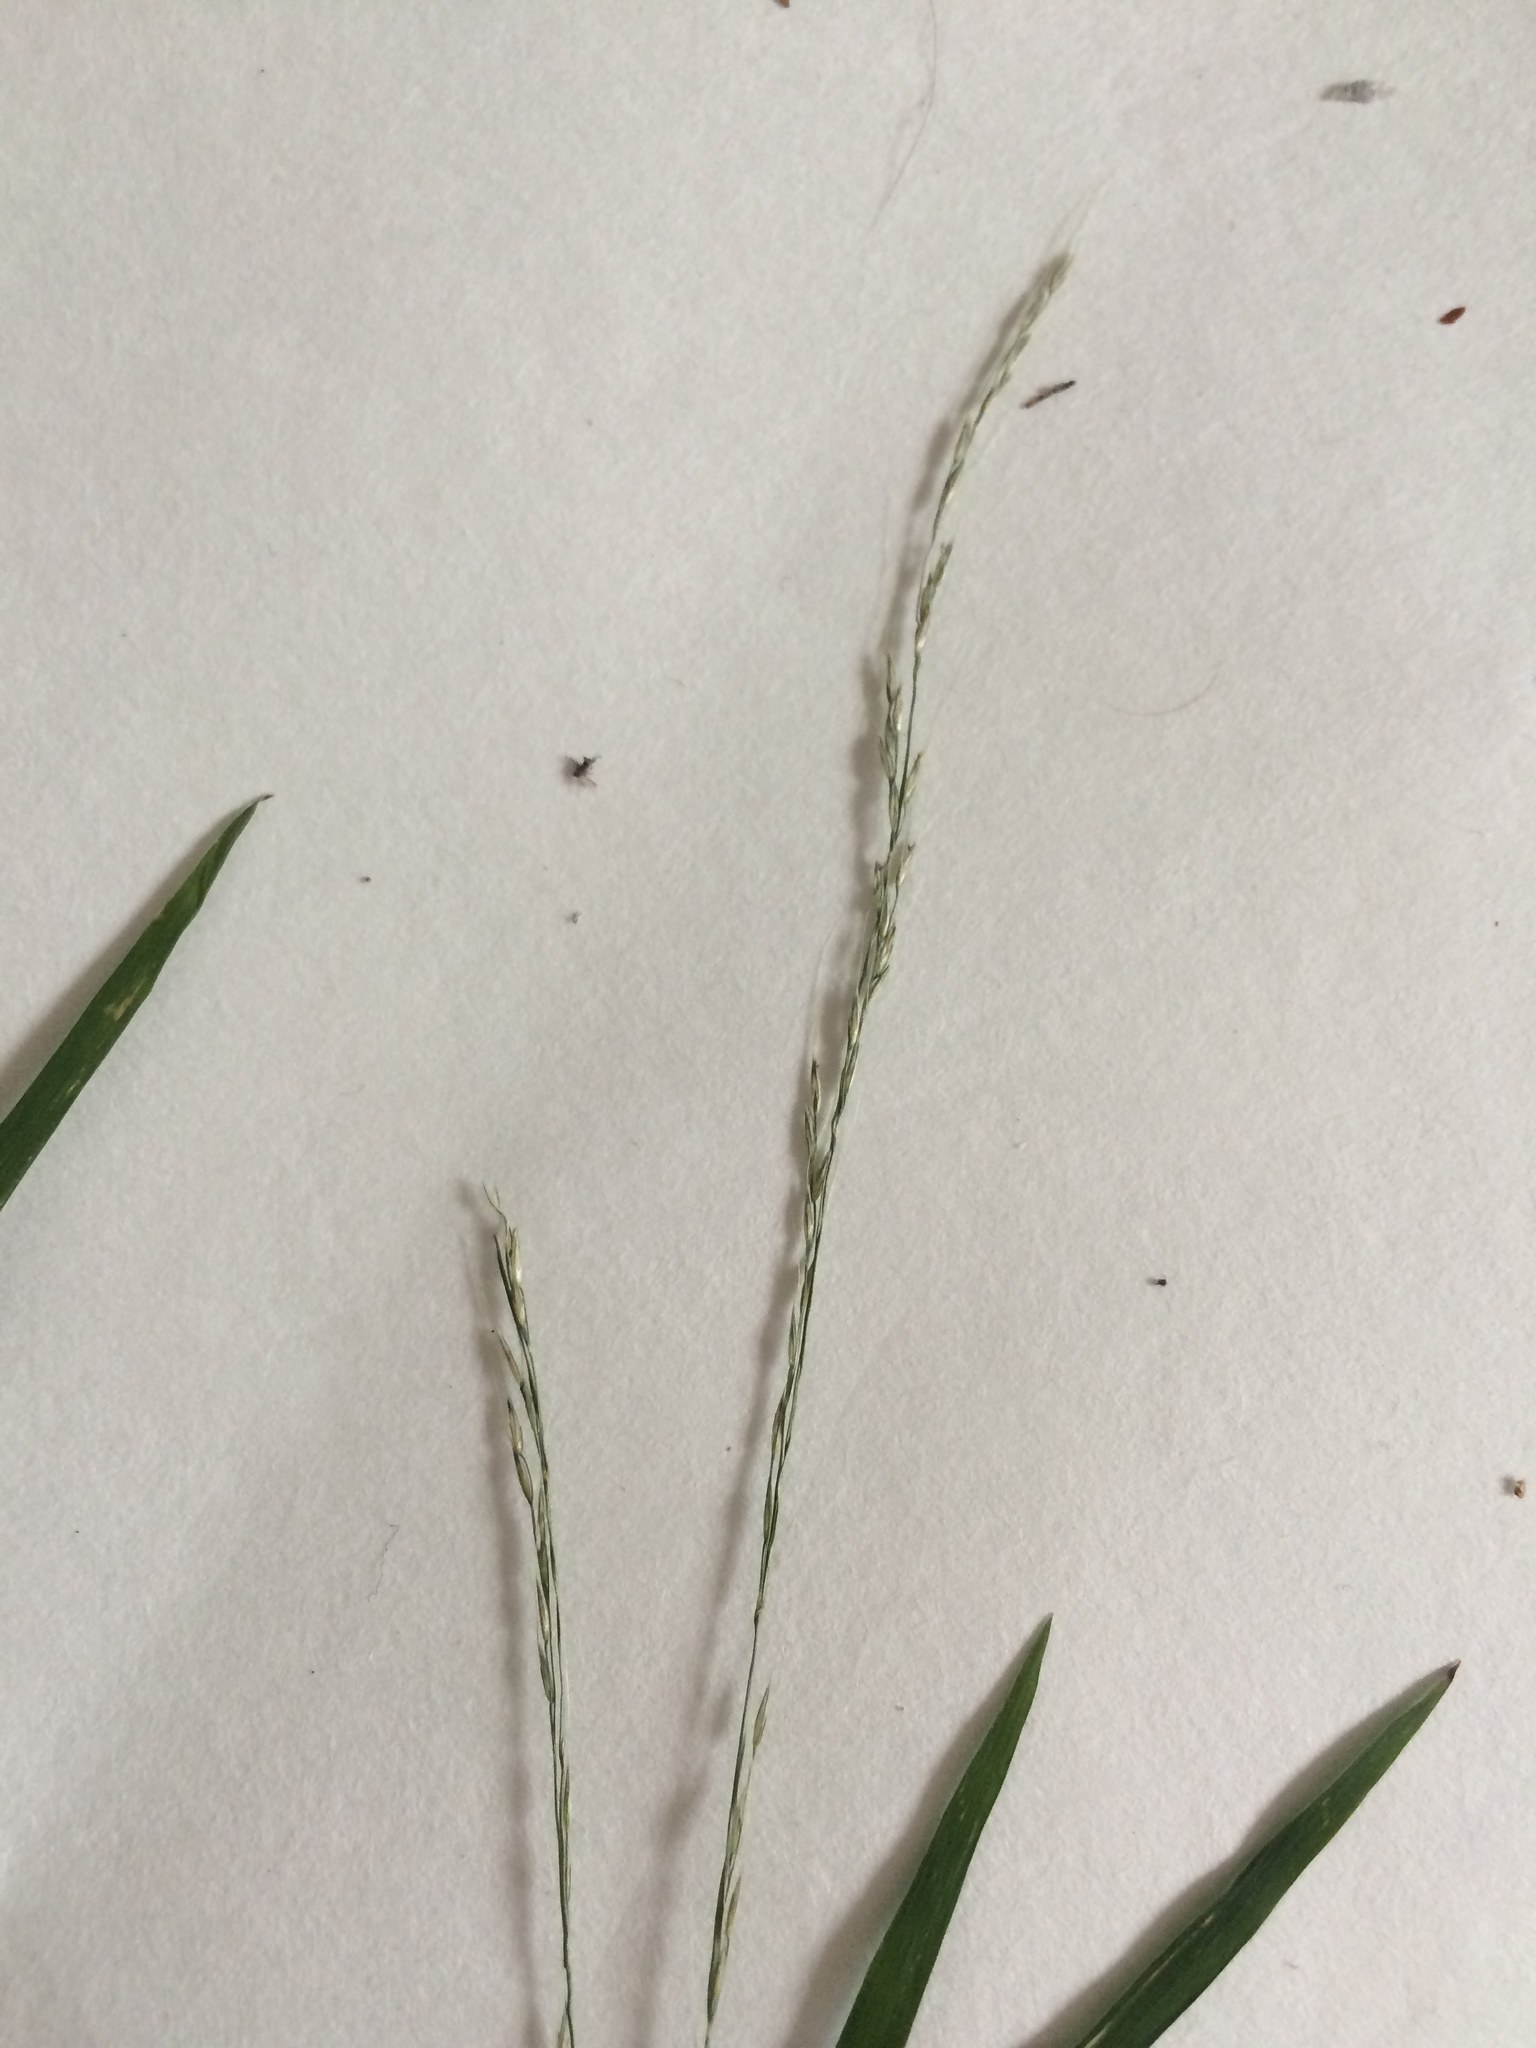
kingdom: Plantae
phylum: Tracheophyta
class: Liliopsida
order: Poales
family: Poaceae
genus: Muhlenbergia
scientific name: Muhlenbergia tenuiflora
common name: Slender muhly
